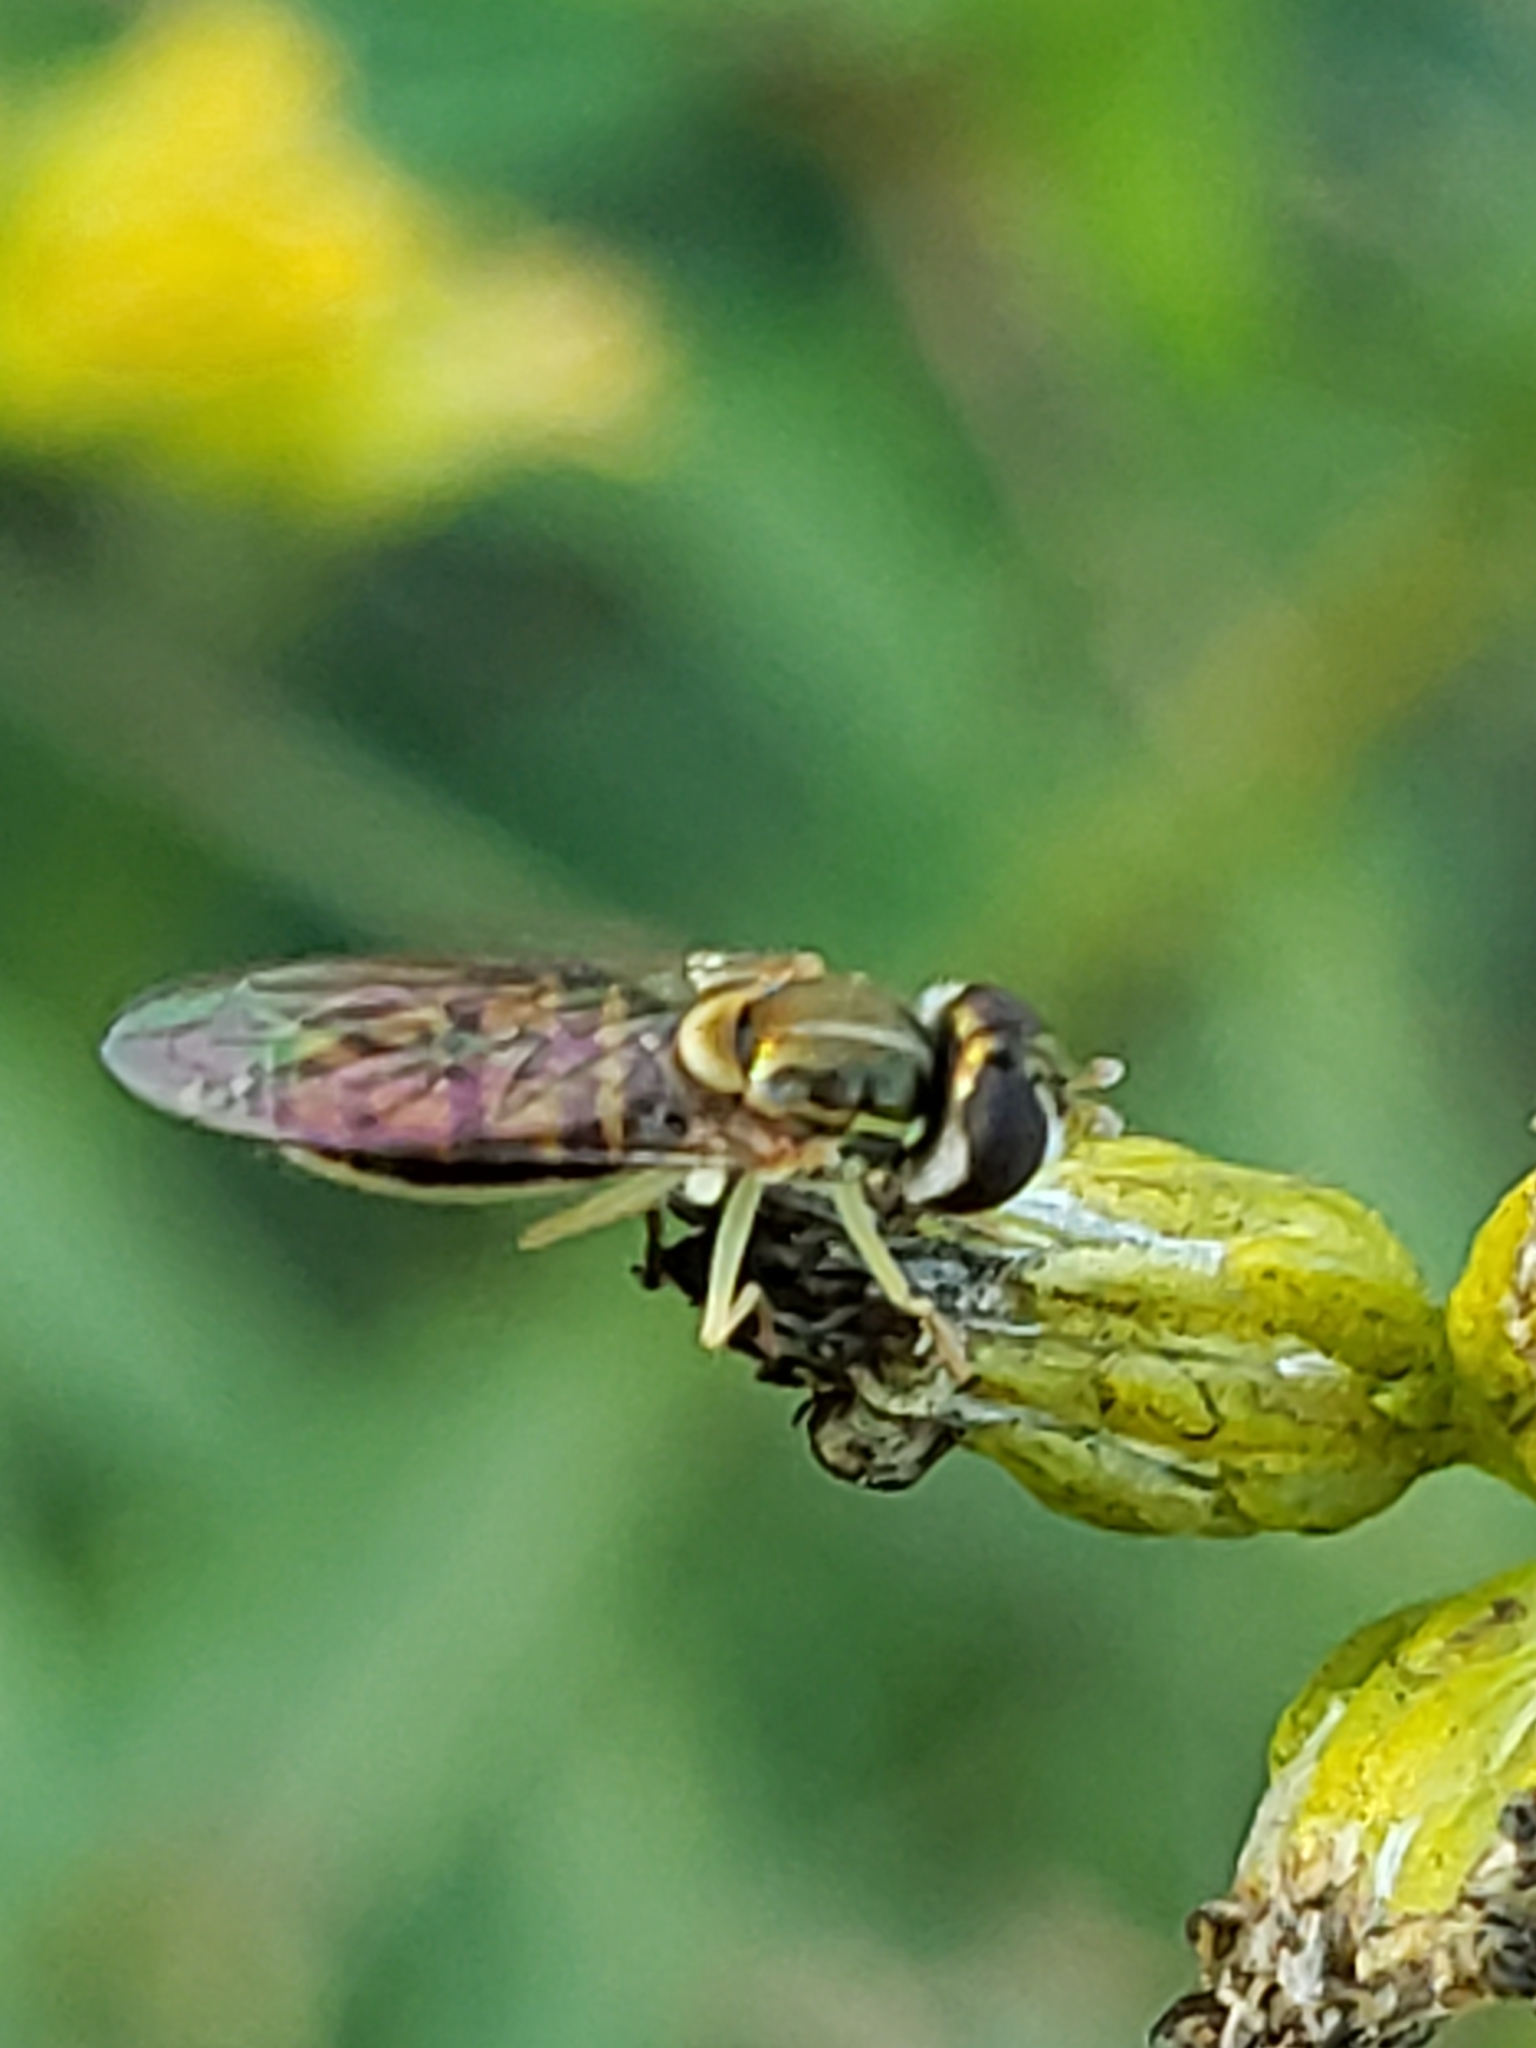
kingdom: Animalia
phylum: Arthropoda
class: Insecta
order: Diptera
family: Syrphidae
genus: Toxomerus
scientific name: Toxomerus marginatus
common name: Syrphid fly
